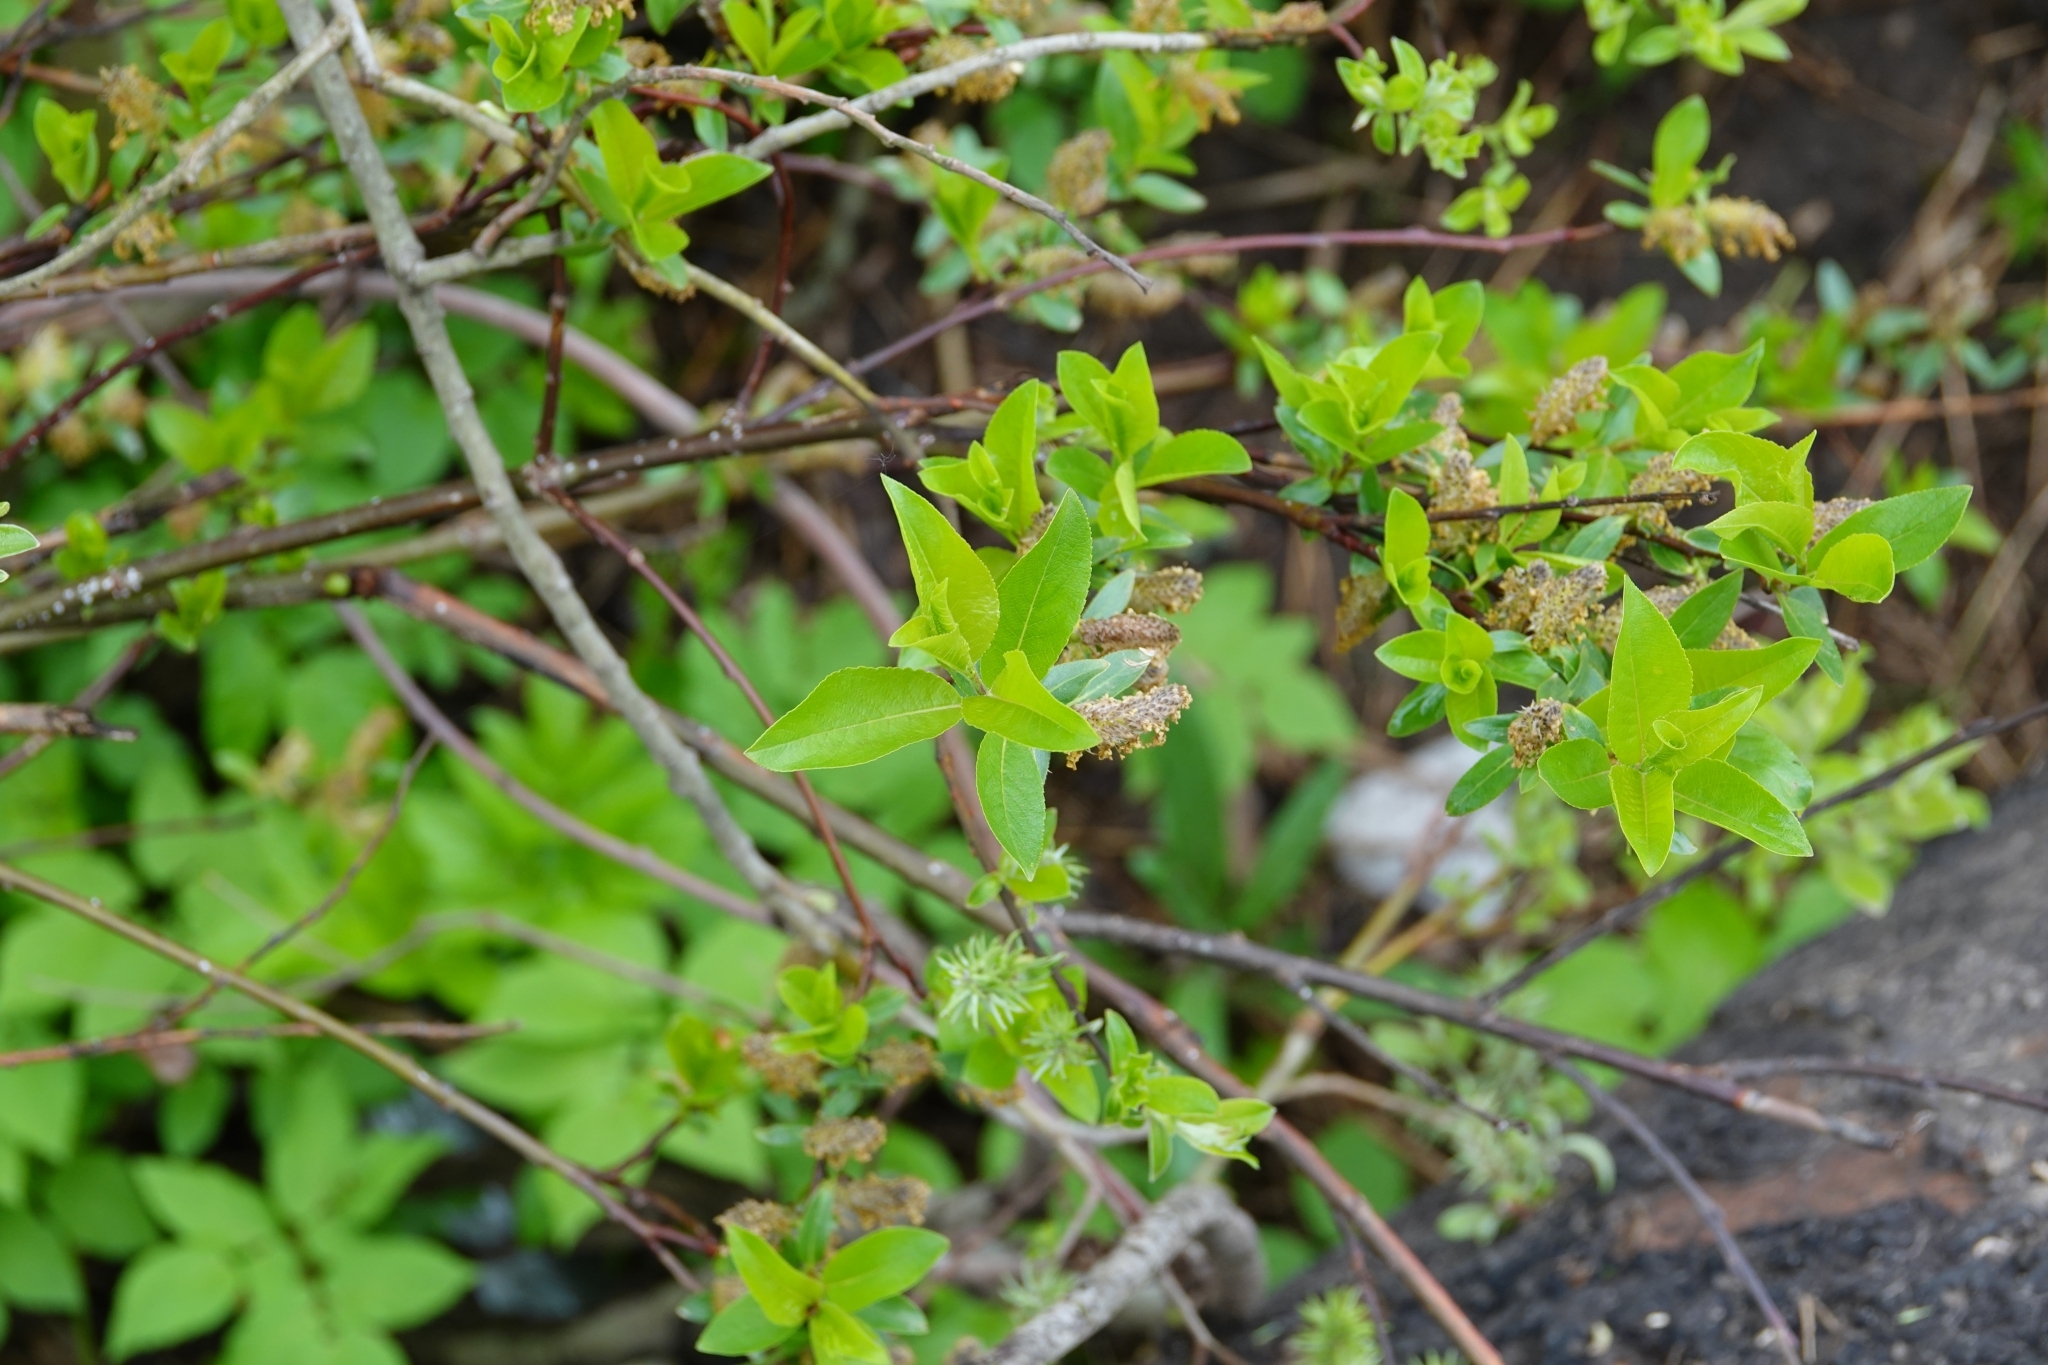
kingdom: Plantae
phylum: Tracheophyta
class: Magnoliopsida
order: Malpighiales
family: Salicaceae
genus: Salix
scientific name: Salix myrsinifolia
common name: Dark-leaved willow
